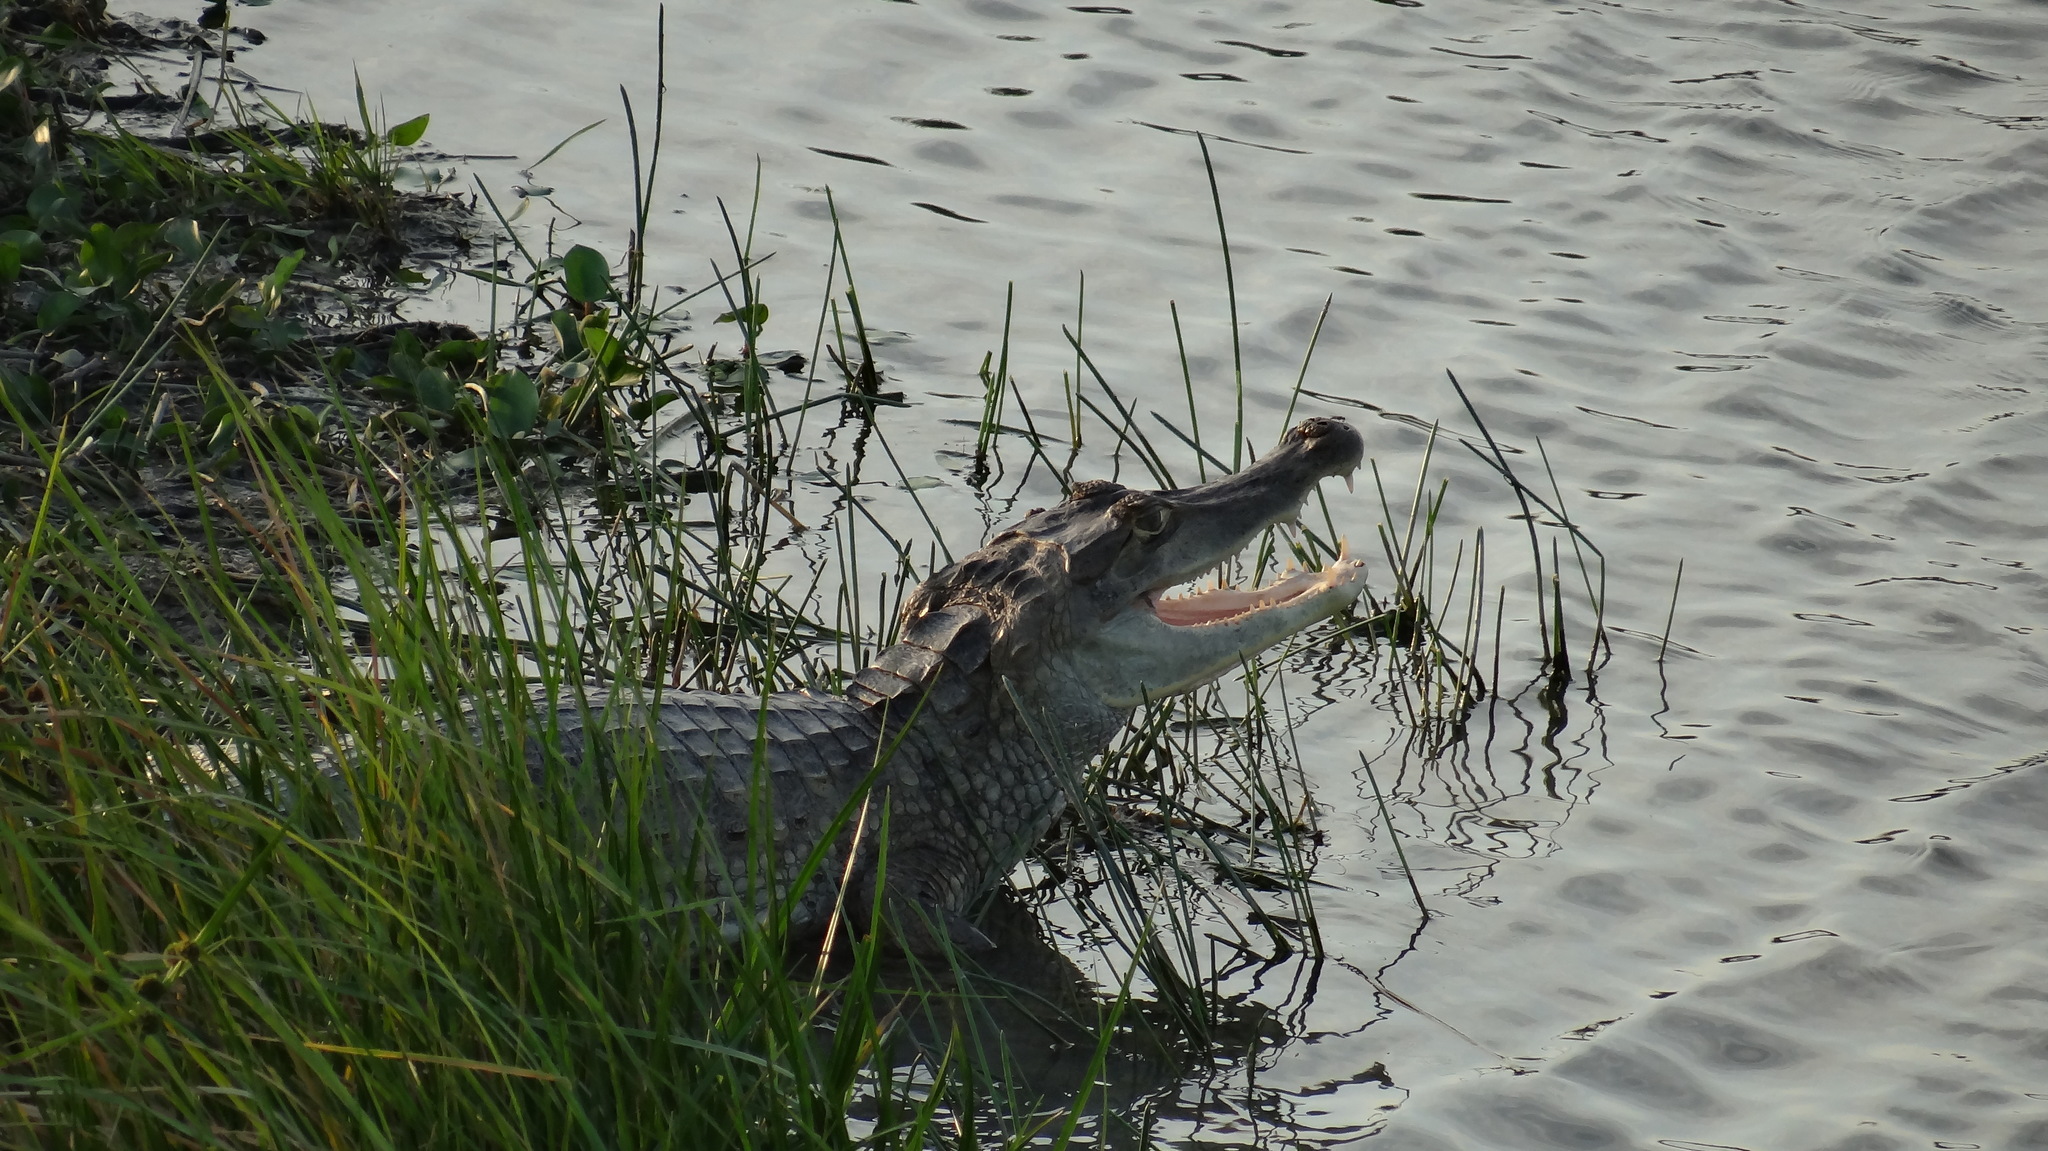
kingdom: Animalia
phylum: Chordata
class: Crocodylia
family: Alligatoridae
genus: Caiman
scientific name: Caiman crocodilus
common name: Common caiman
